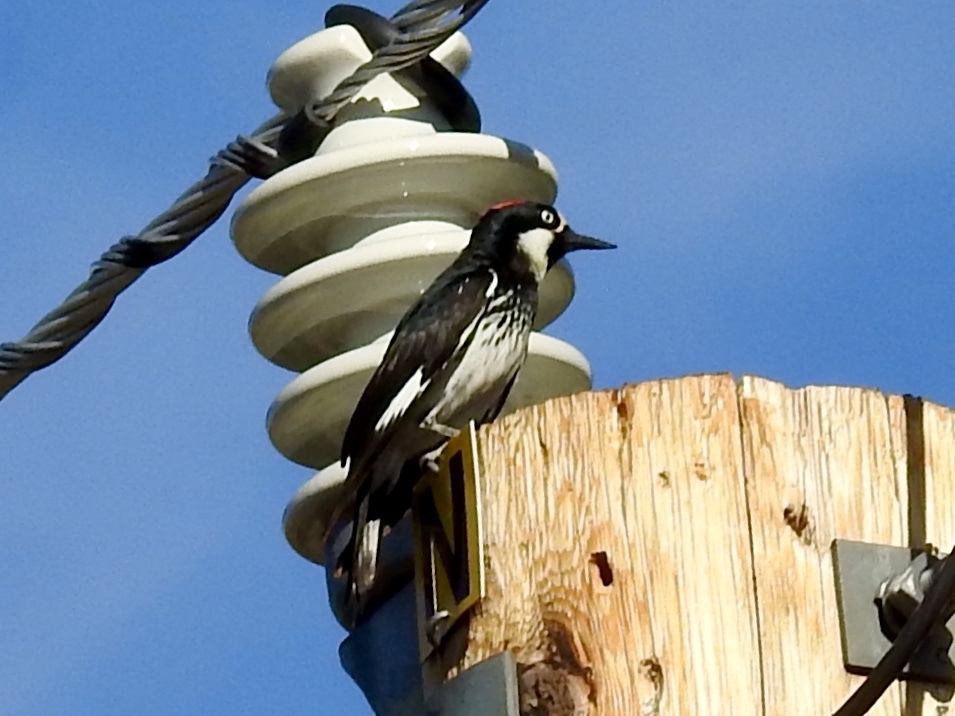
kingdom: Animalia
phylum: Chordata
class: Aves
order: Piciformes
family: Picidae
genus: Melanerpes
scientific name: Melanerpes formicivorus
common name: Acorn woodpecker
